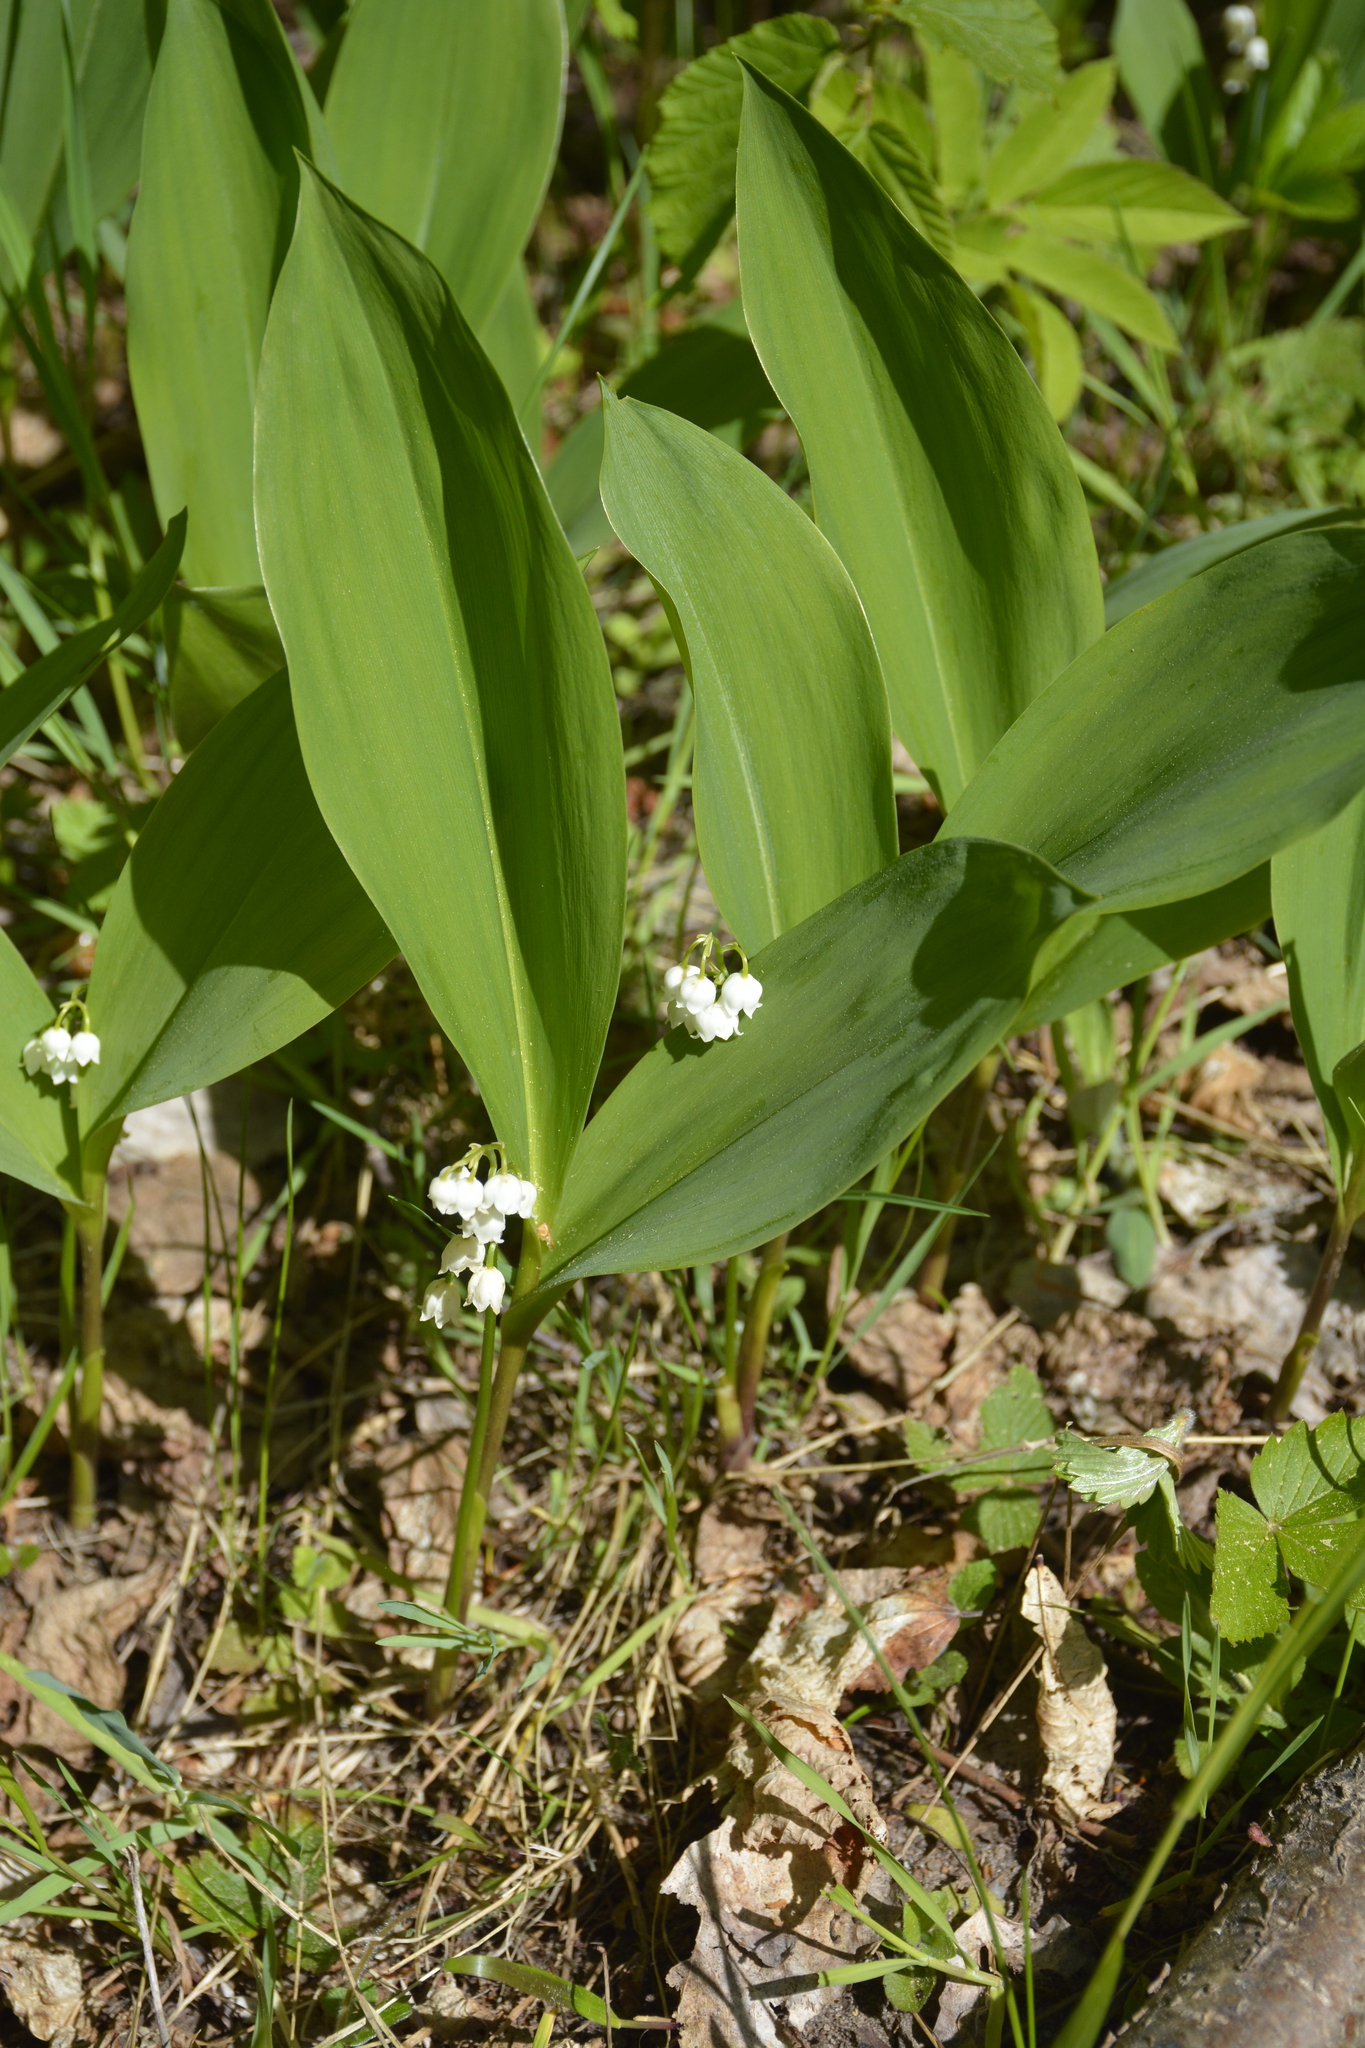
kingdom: Plantae
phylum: Tracheophyta
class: Liliopsida
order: Asparagales
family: Asparagaceae
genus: Convallaria
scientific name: Convallaria majalis
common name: Lily-of-the-valley
